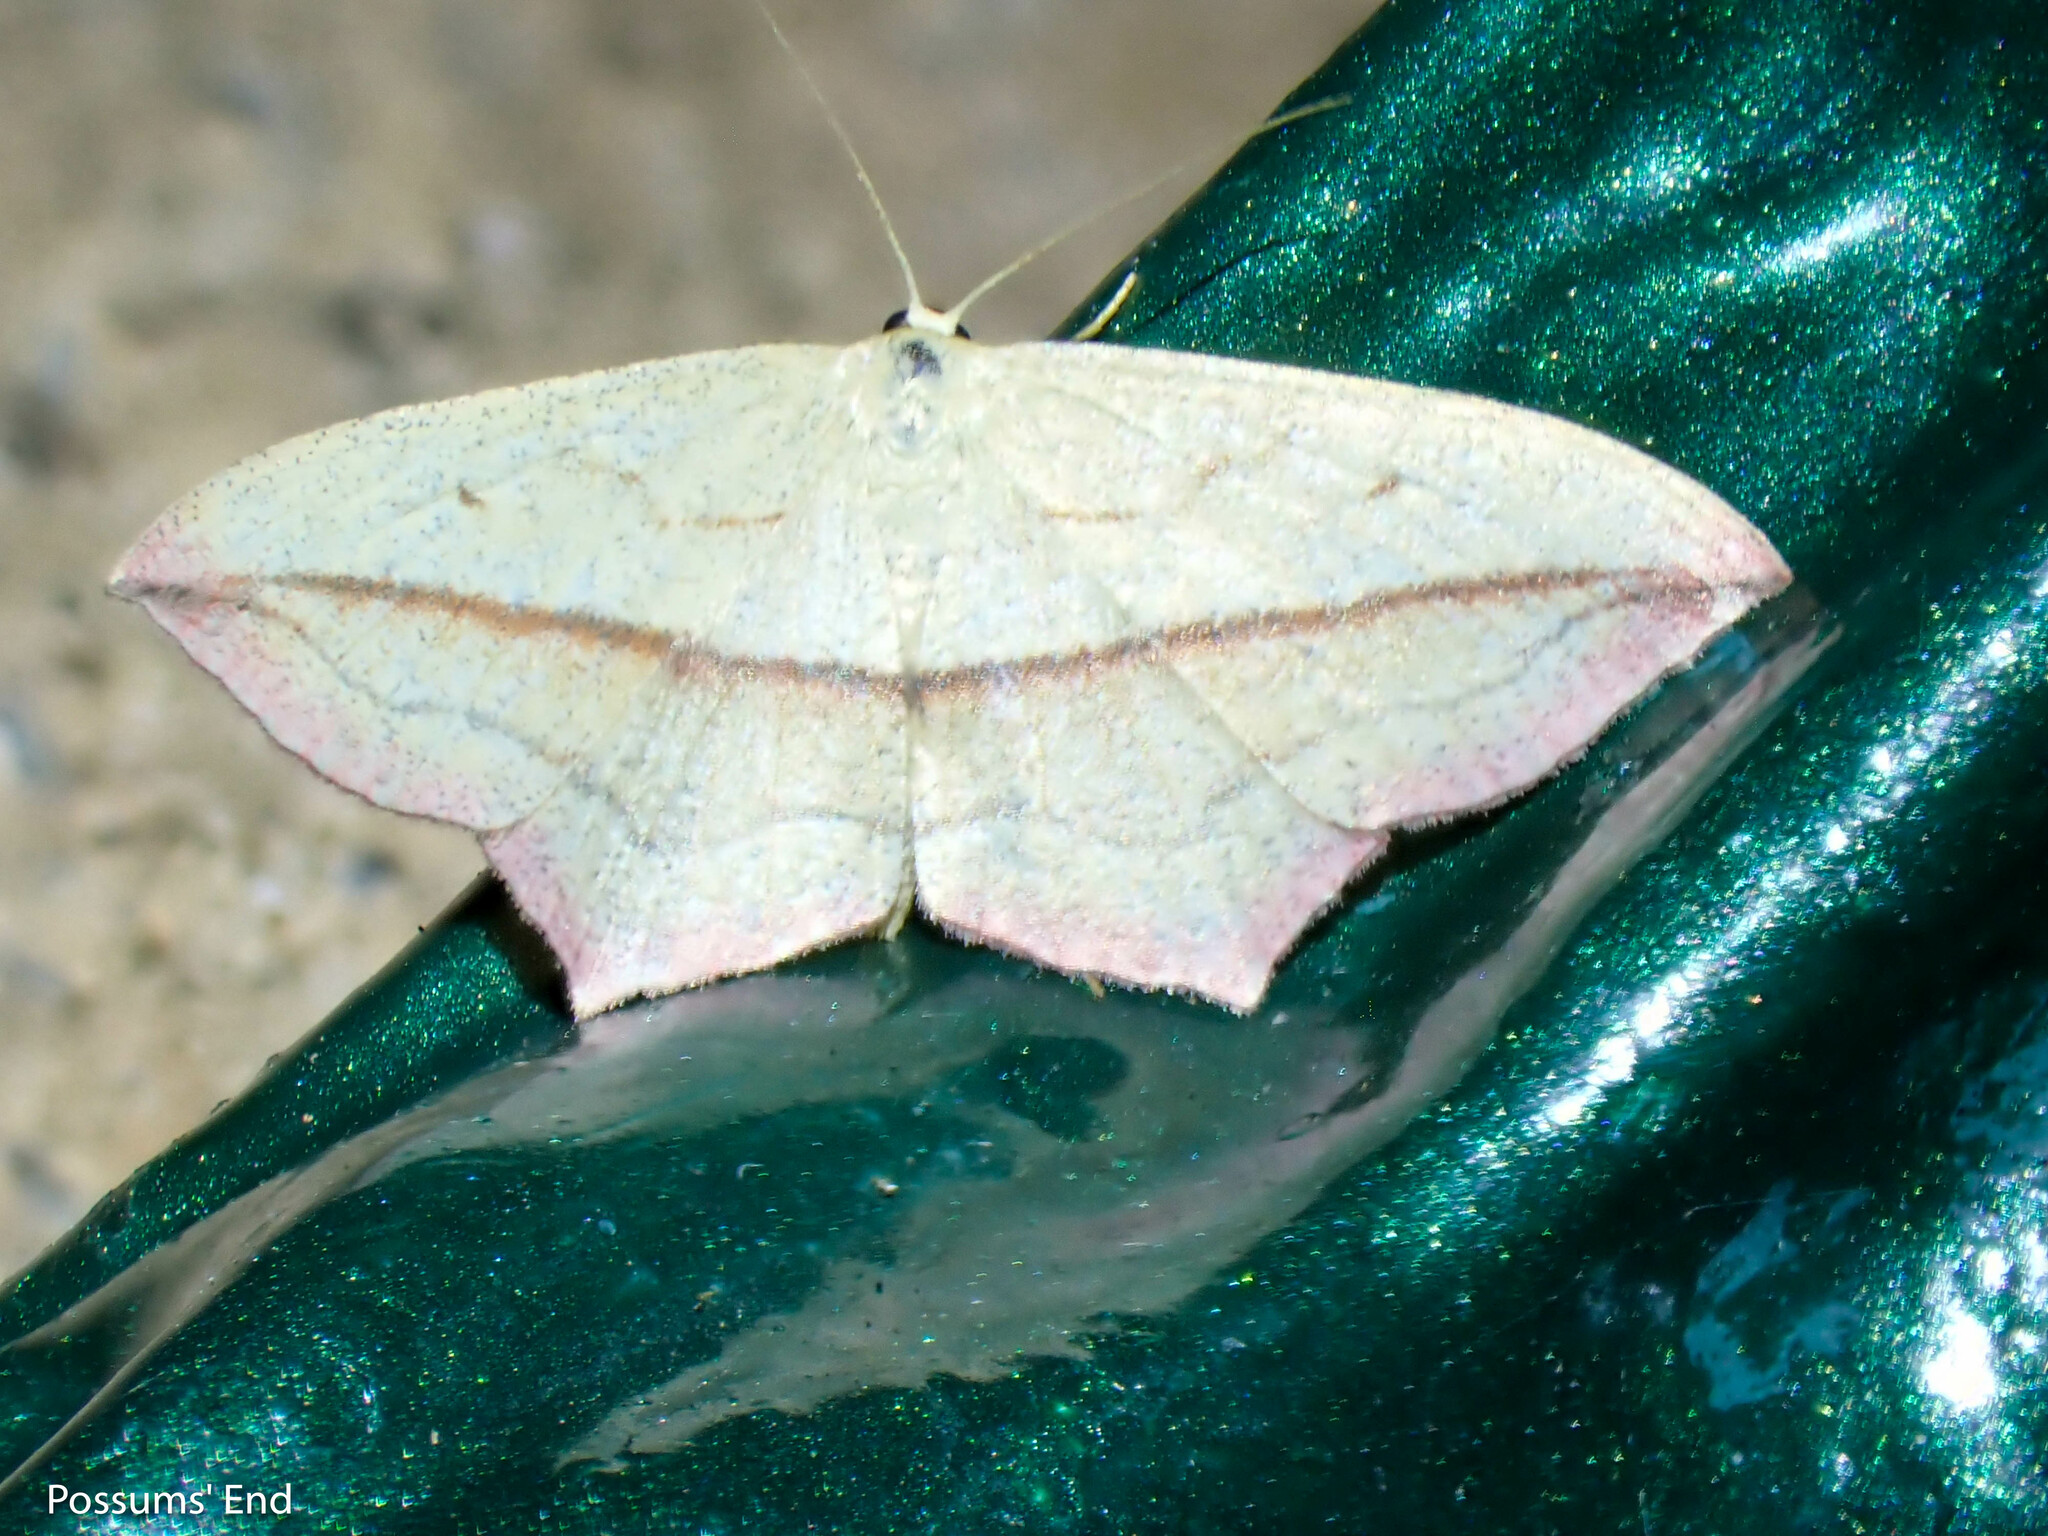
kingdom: Animalia
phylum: Arthropoda
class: Insecta
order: Lepidoptera
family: Geometridae
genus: Timandra
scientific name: Timandra comae
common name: Blood-vein
